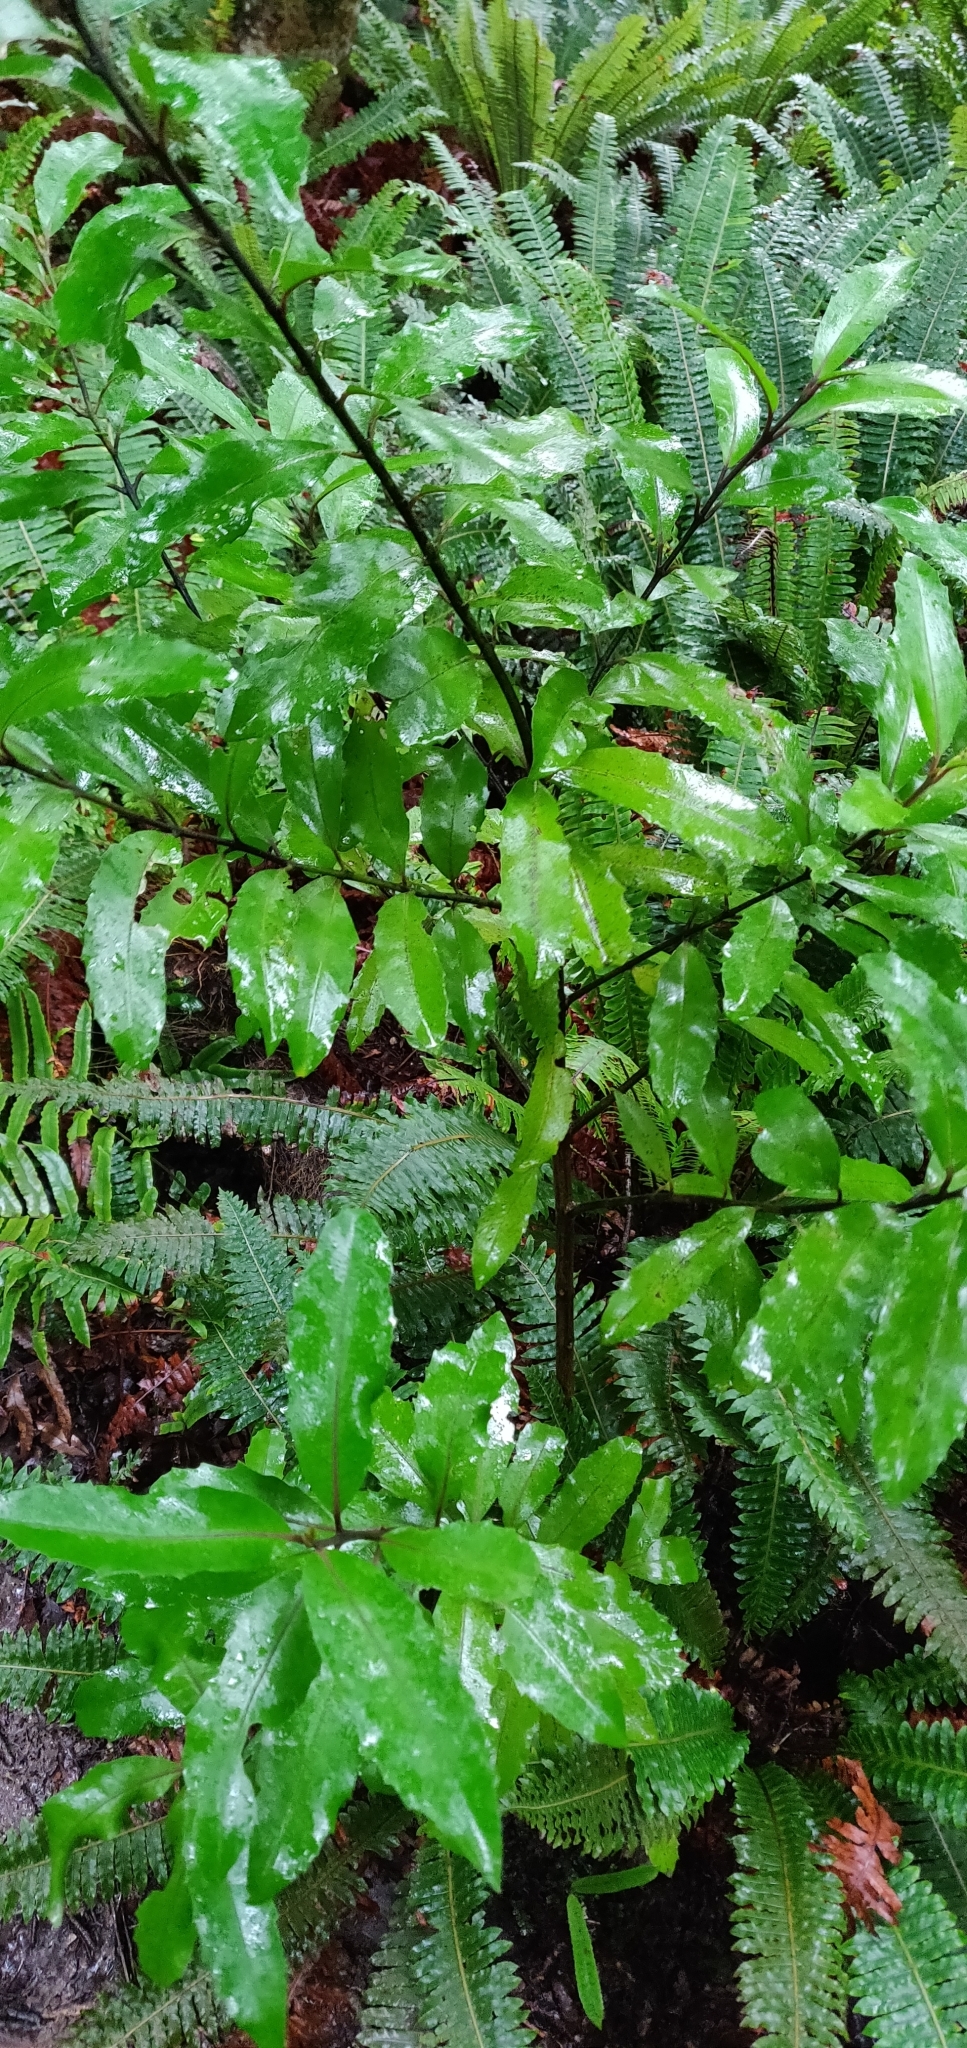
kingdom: Plantae
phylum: Tracheophyta
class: Magnoliopsida
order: Laurales
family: Monimiaceae
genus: Hedycarya
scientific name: Hedycarya arborea
